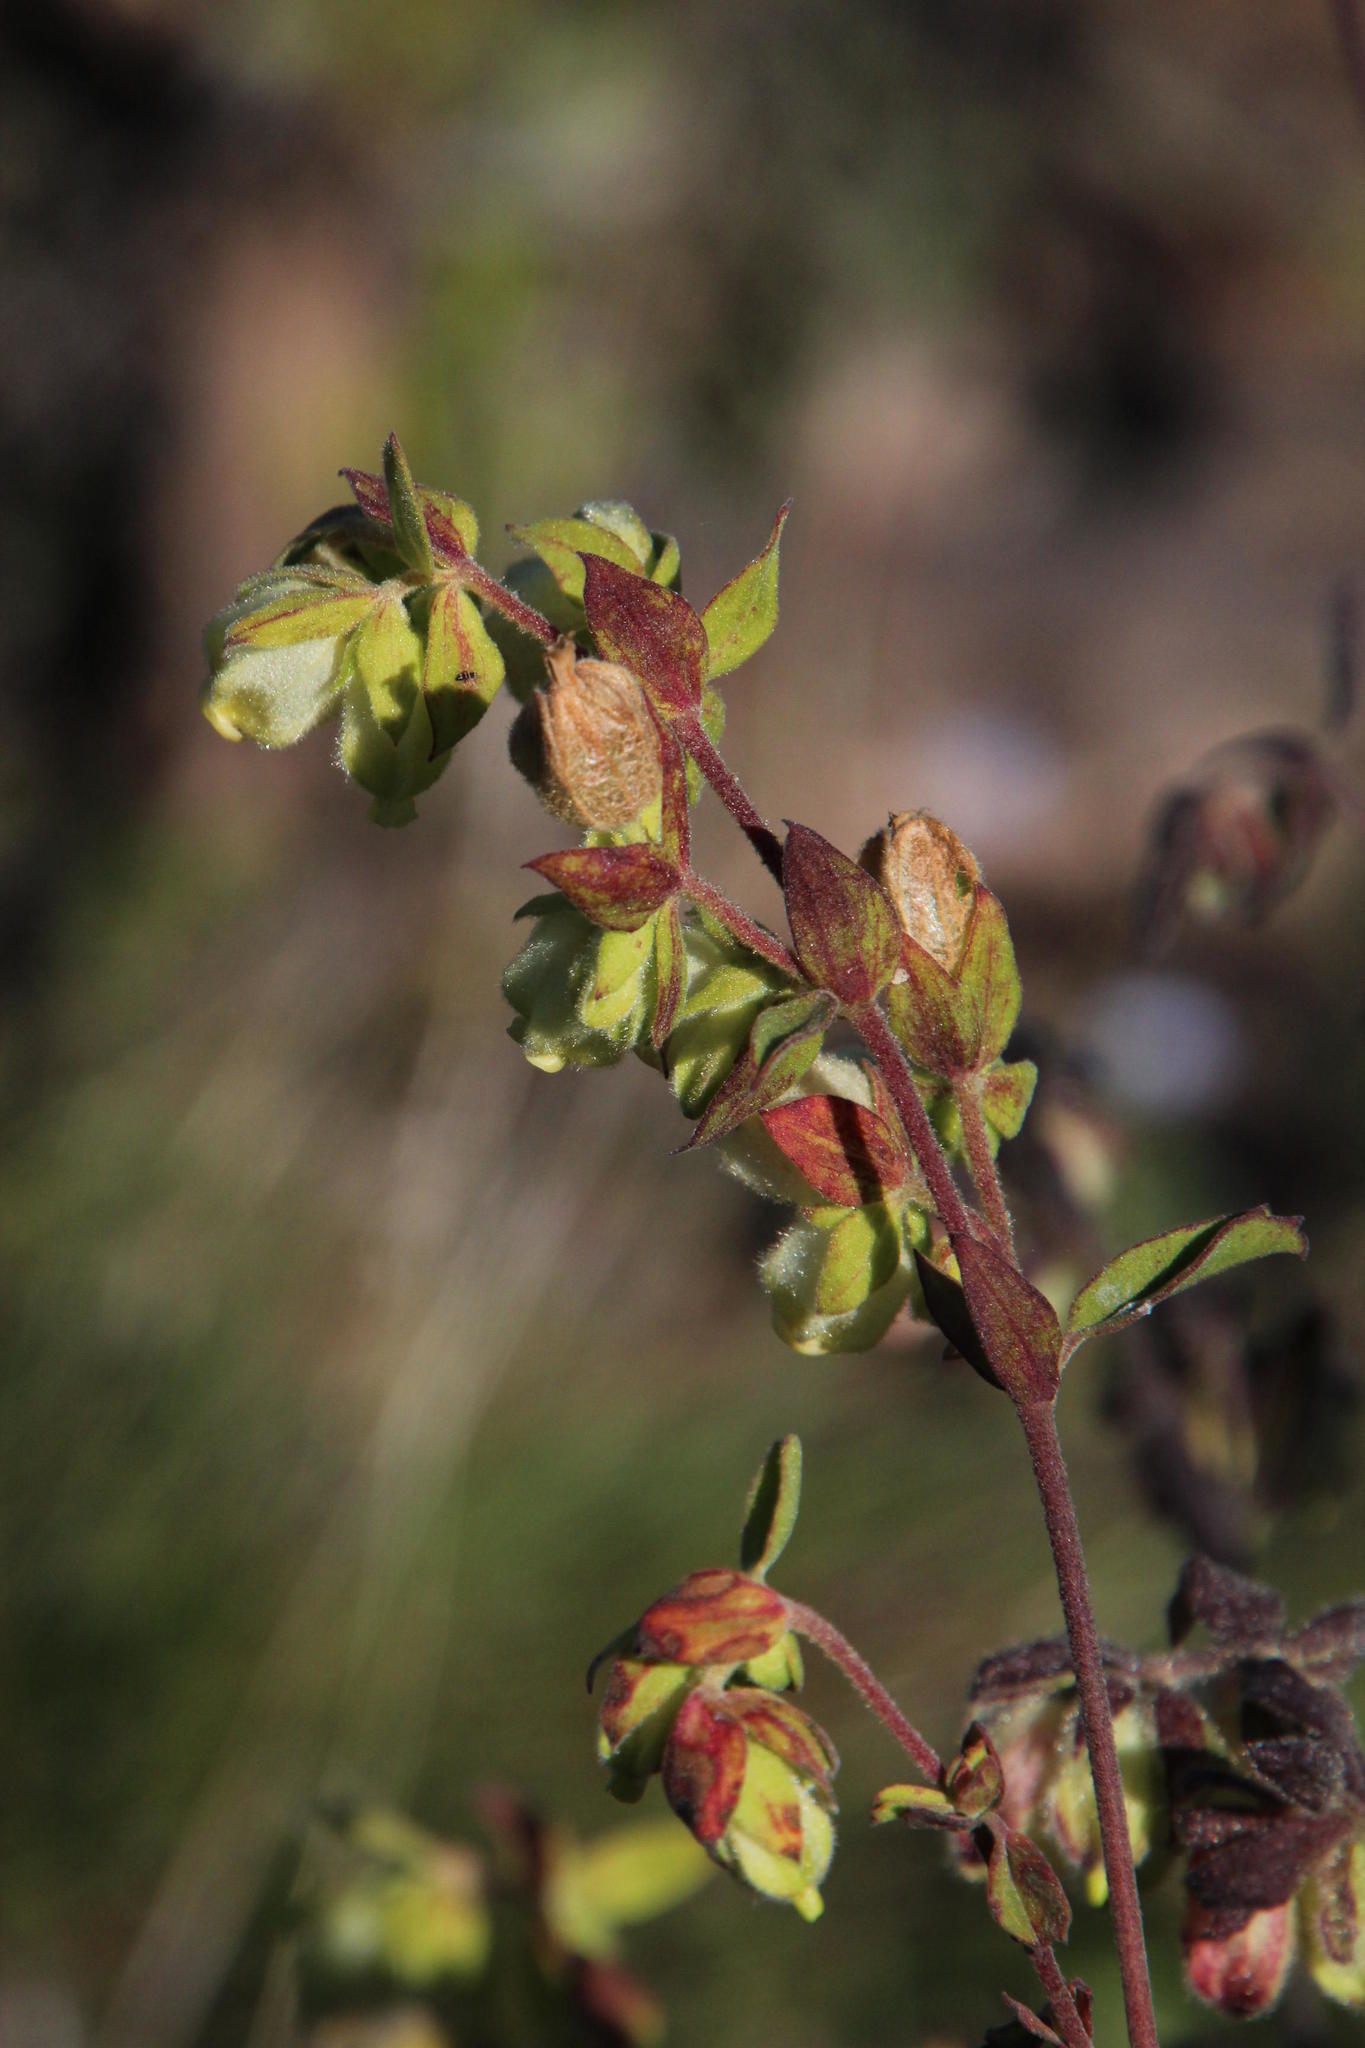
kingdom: Plantae
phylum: Tracheophyta
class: Magnoliopsida
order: Malvales
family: Malvaceae
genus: Hermannia
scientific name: Hermannia hyssopifolia
